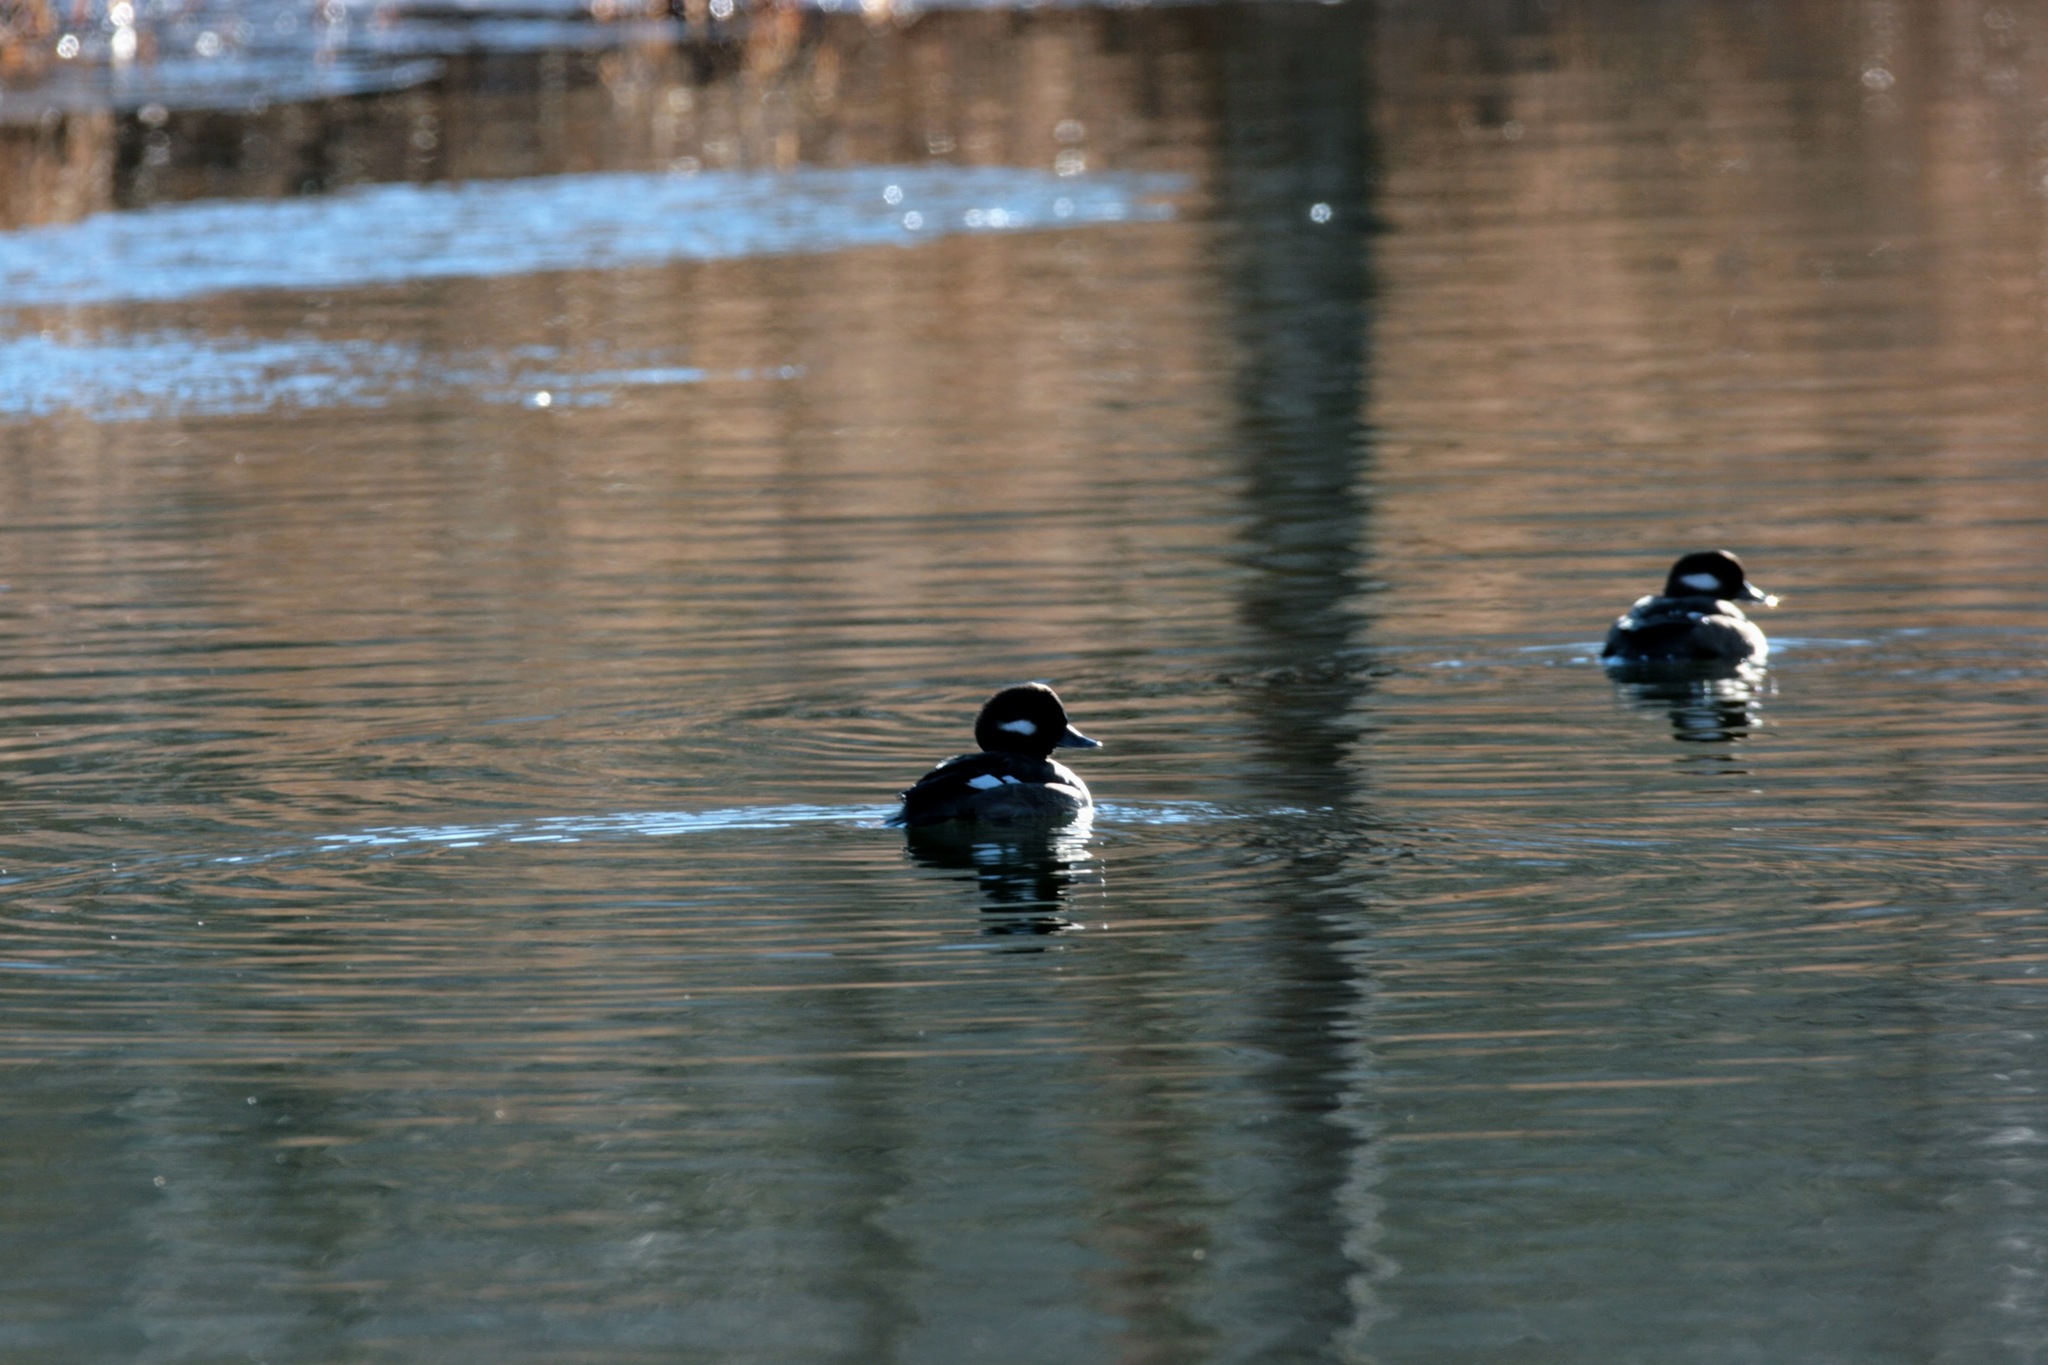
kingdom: Animalia
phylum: Chordata
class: Aves
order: Anseriformes
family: Anatidae
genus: Bucephala
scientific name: Bucephala albeola
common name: Bufflehead
